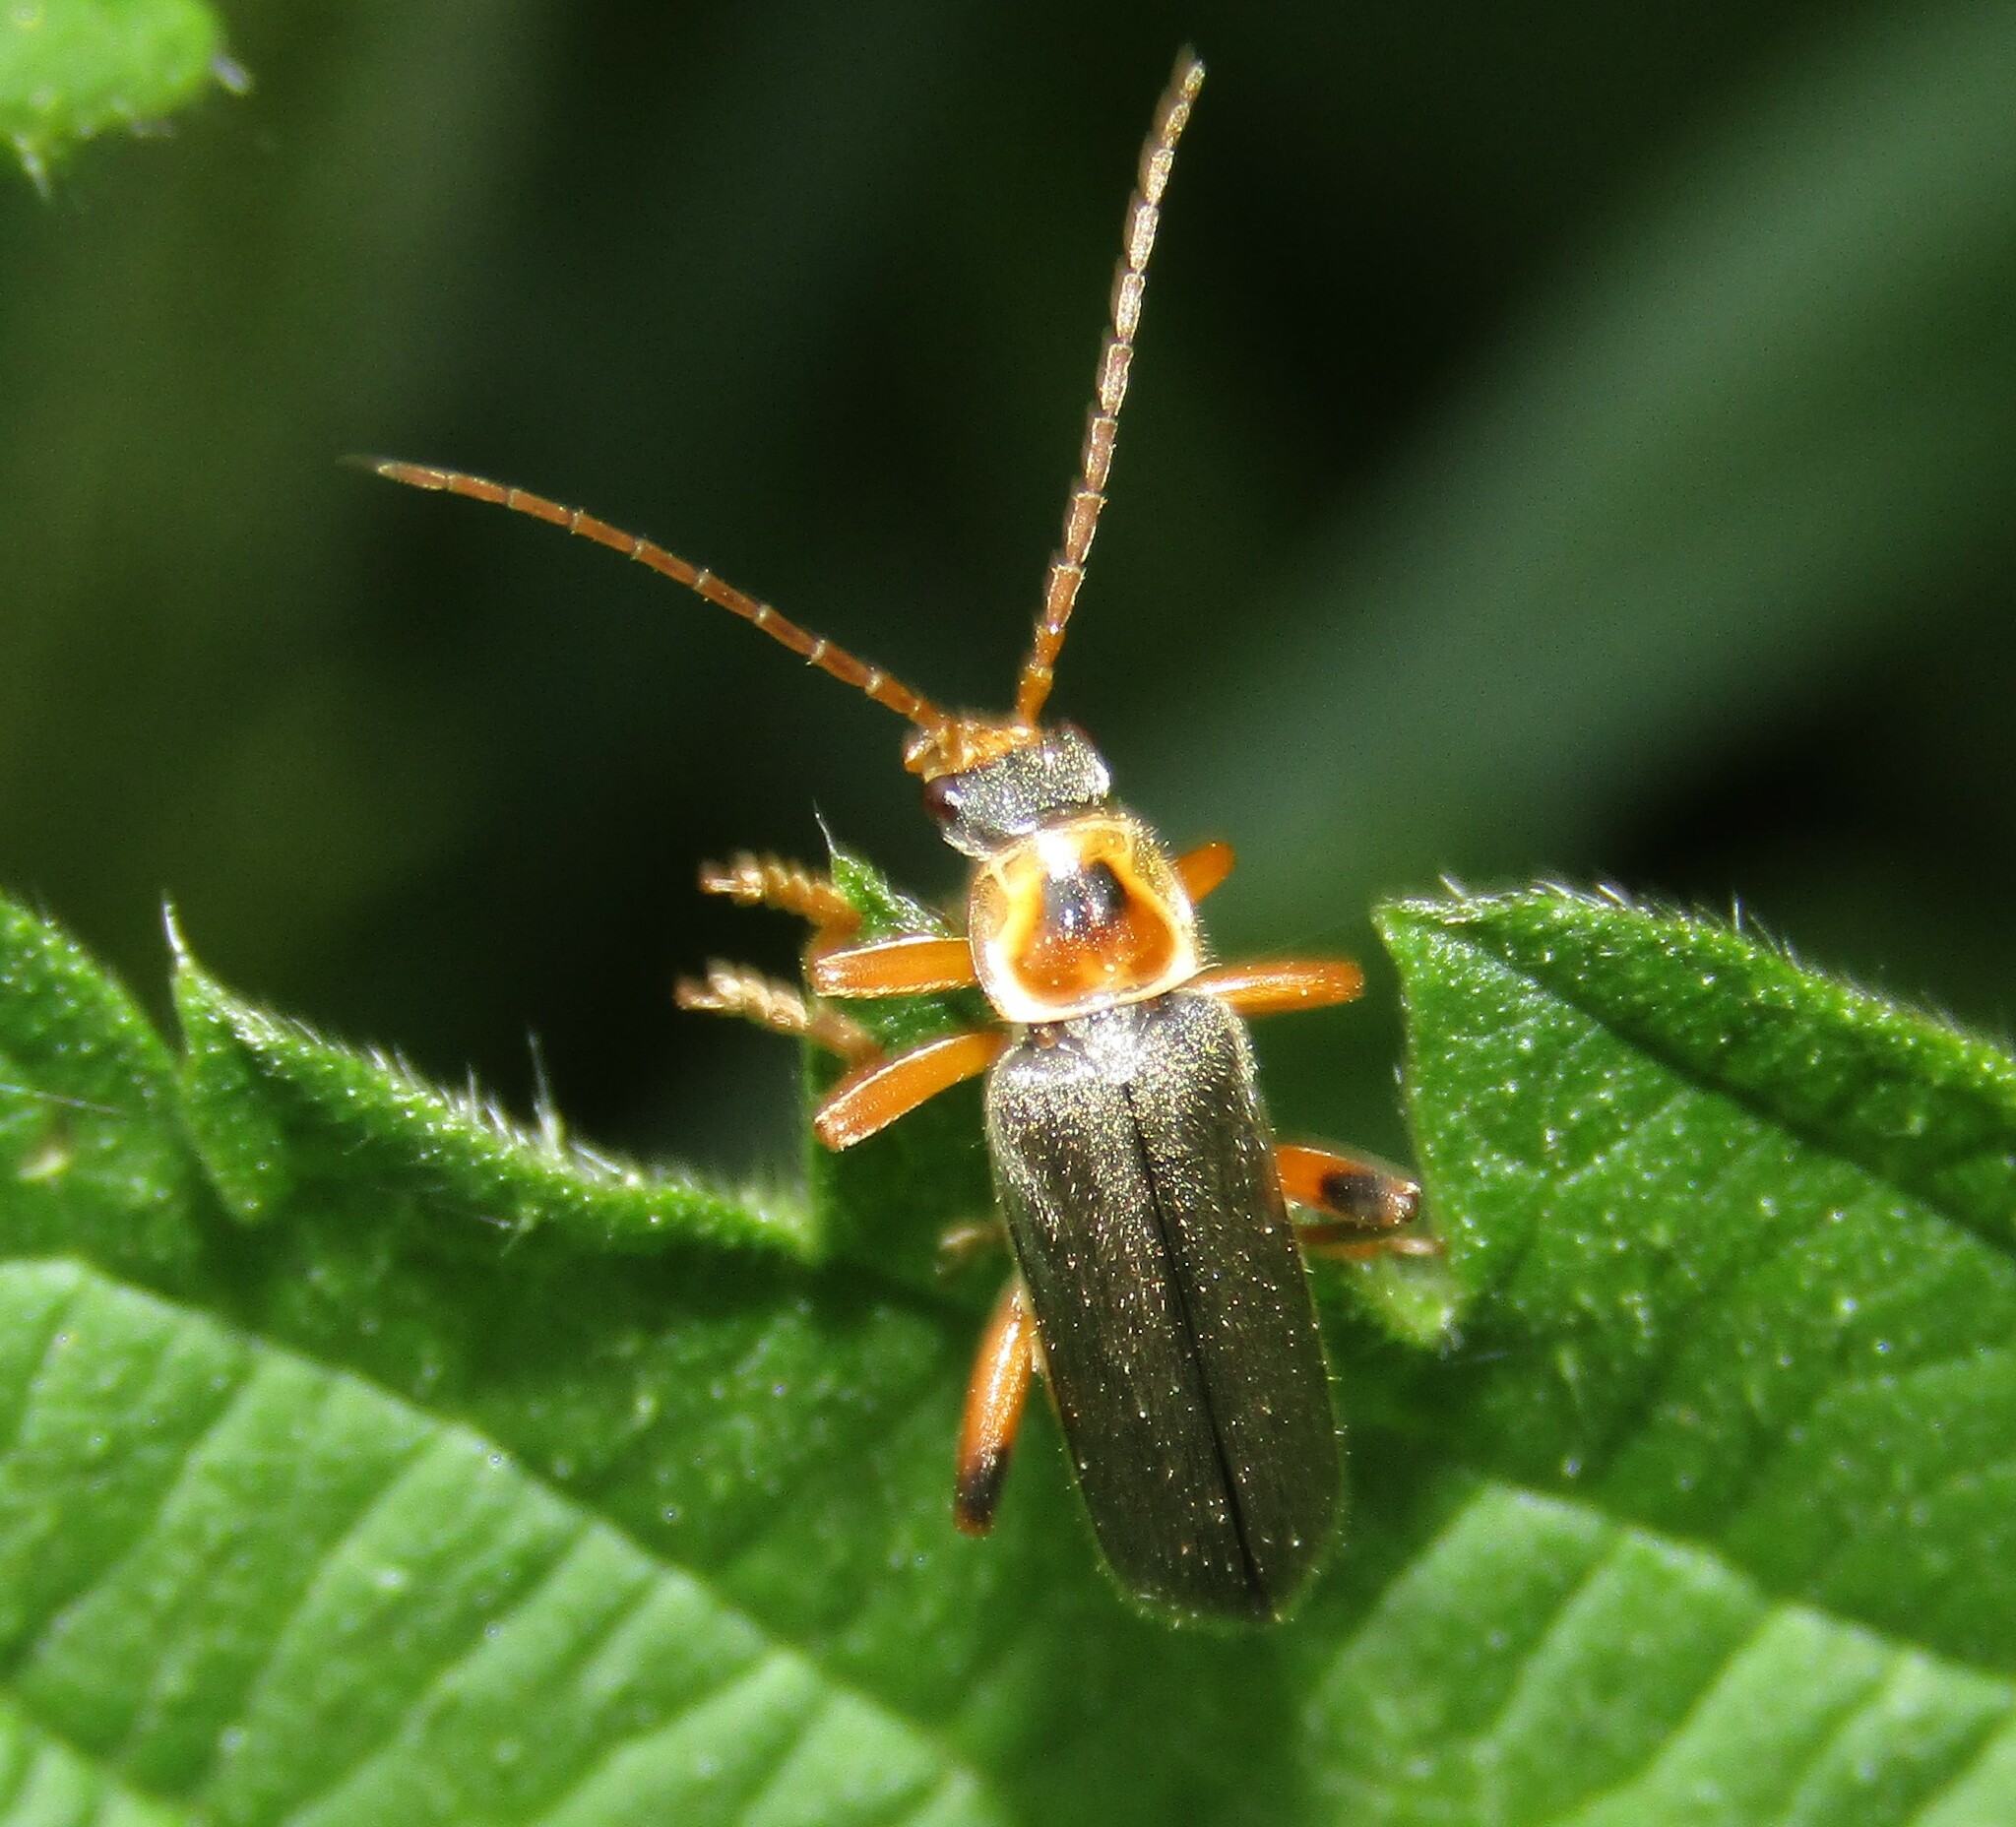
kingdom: Animalia
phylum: Arthropoda
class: Insecta
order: Coleoptera
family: Cantharidae
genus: Cantharis
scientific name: Cantharis nigricans
